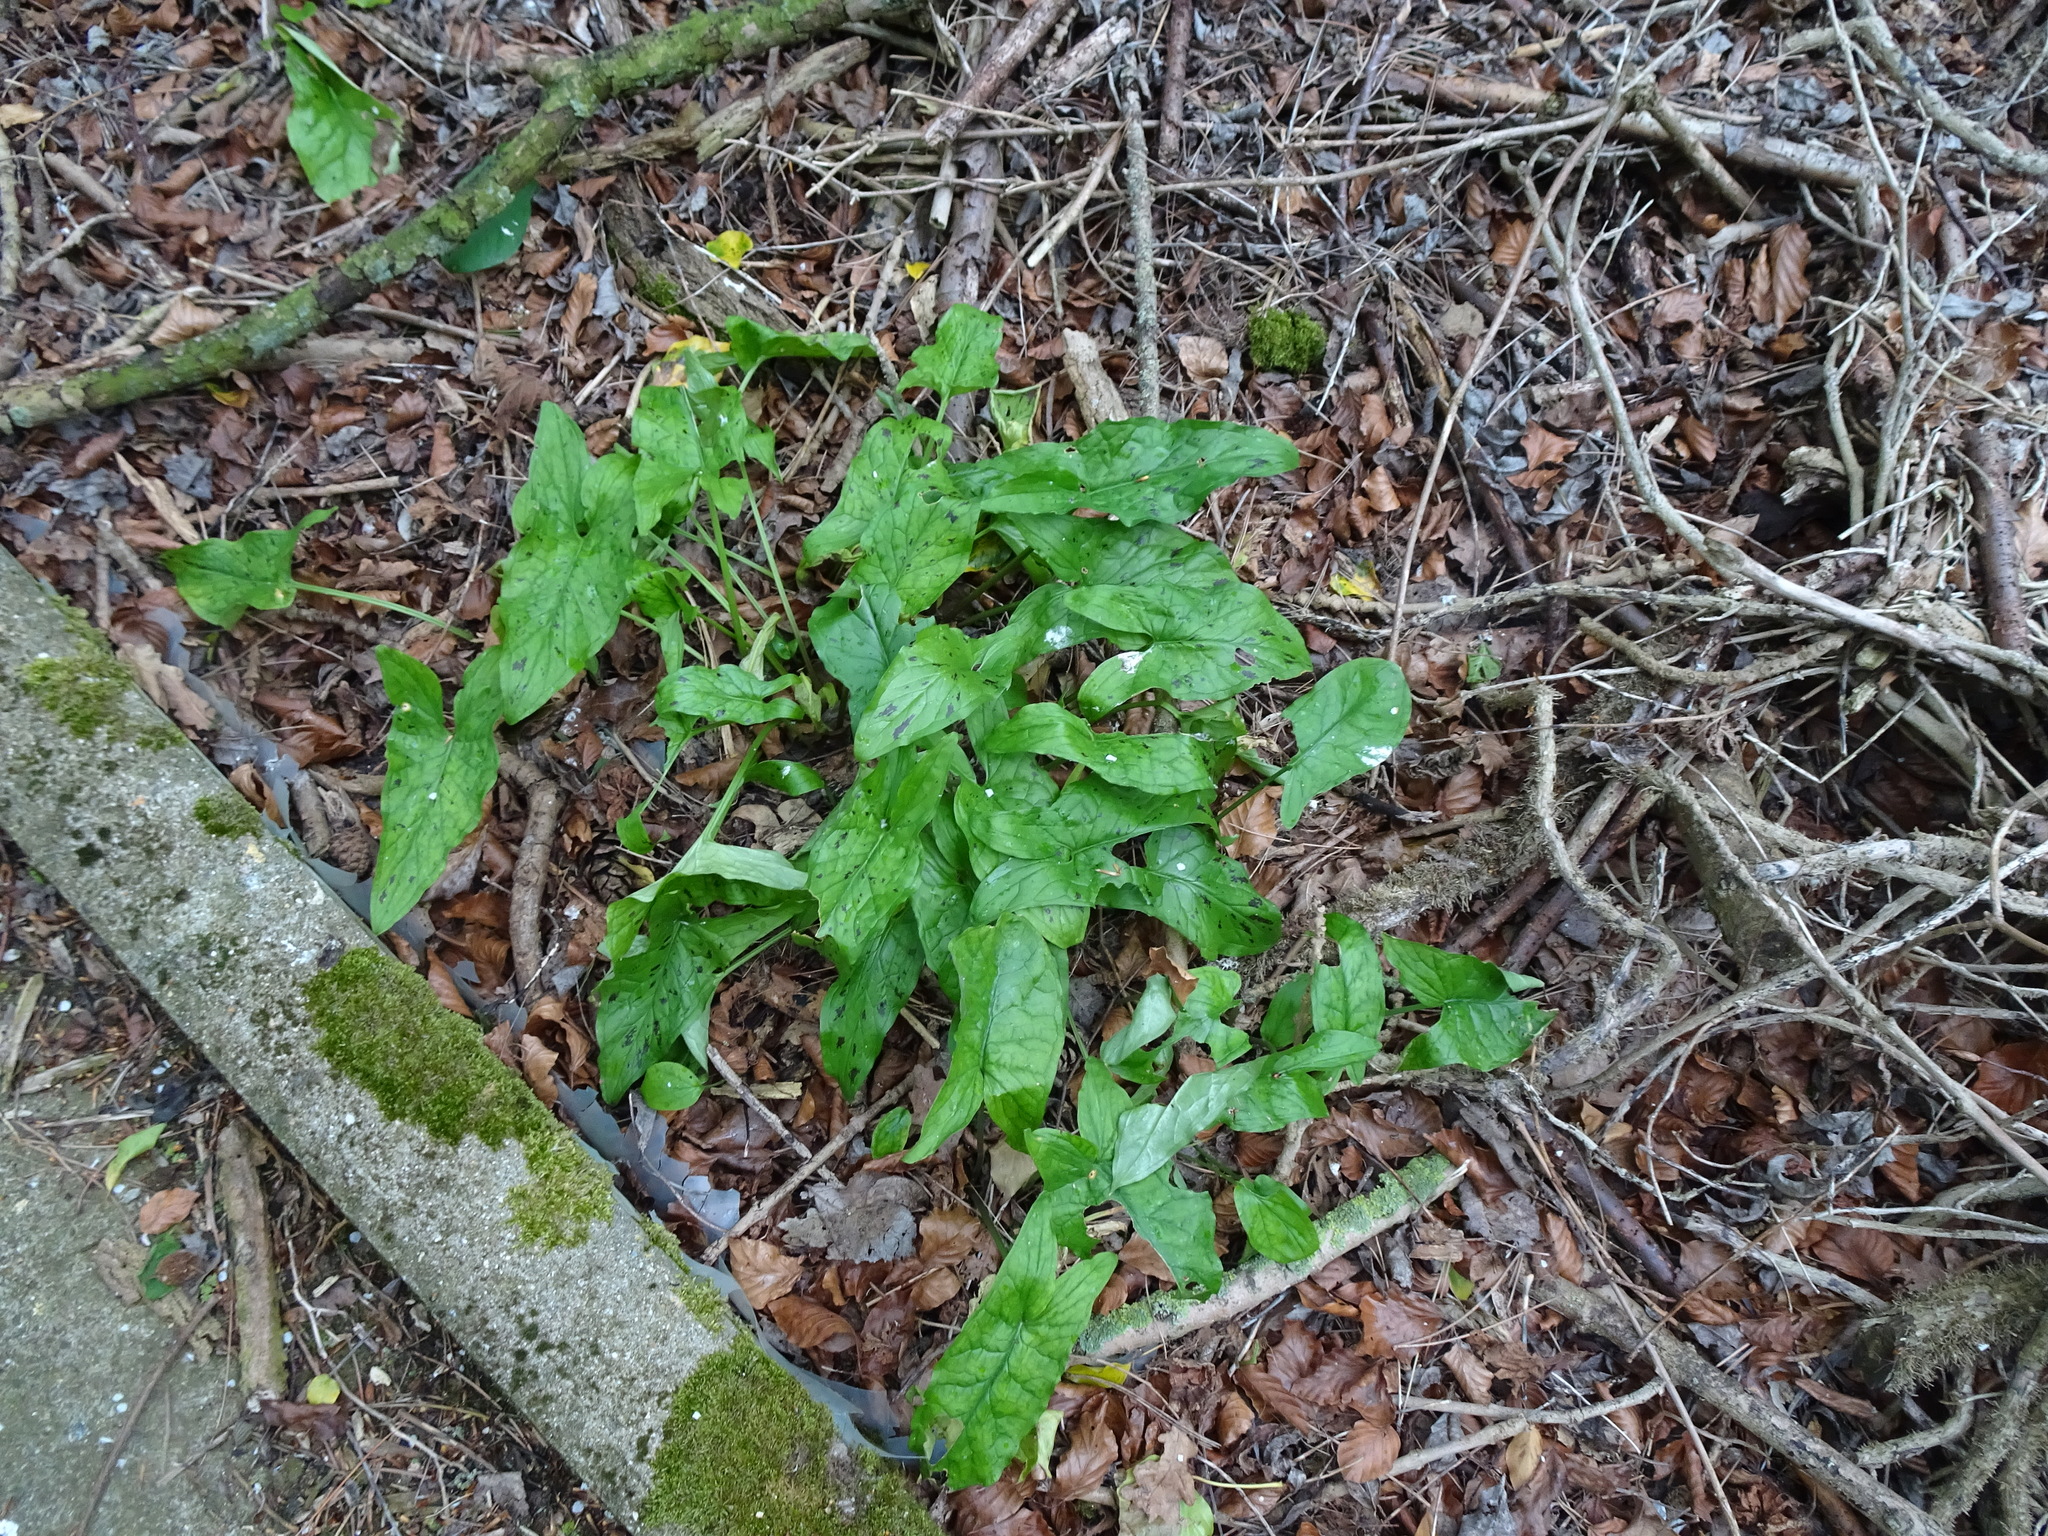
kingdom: Plantae
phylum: Tracheophyta
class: Liliopsida
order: Alismatales
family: Araceae
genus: Arum
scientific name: Arum maculatum
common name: Lords-and-ladies
